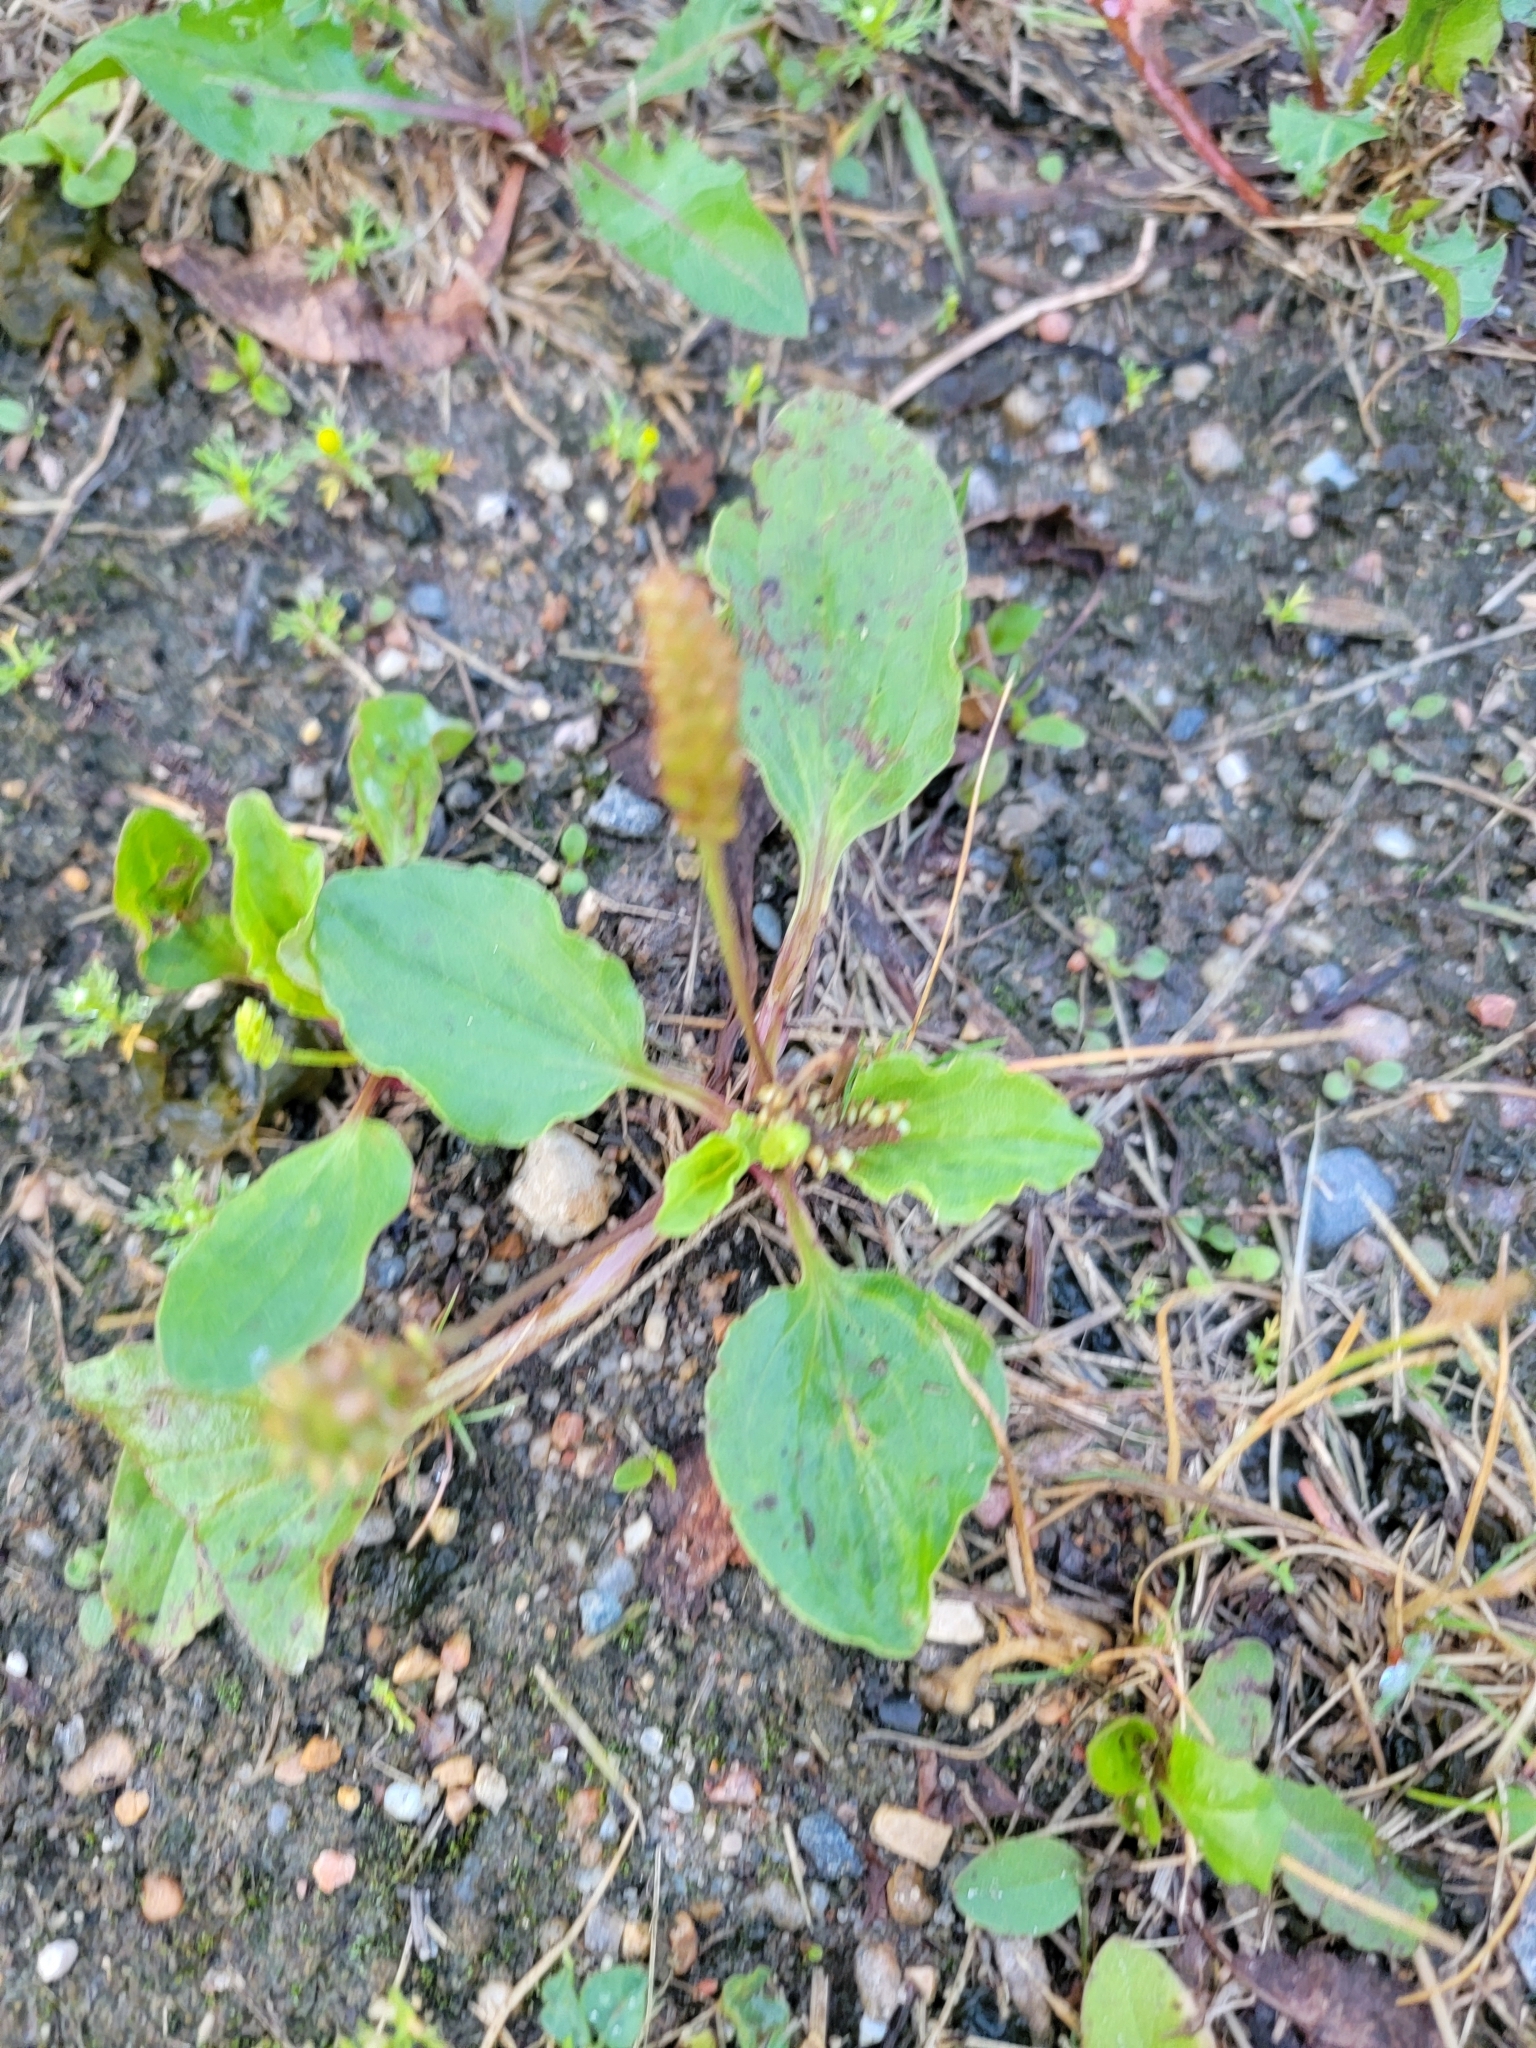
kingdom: Plantae
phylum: Tracheophyta
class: Magnoliopsida
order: Lamiales
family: Plantaginaceae
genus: Plantago
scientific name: Plantago major
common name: Common plantain
